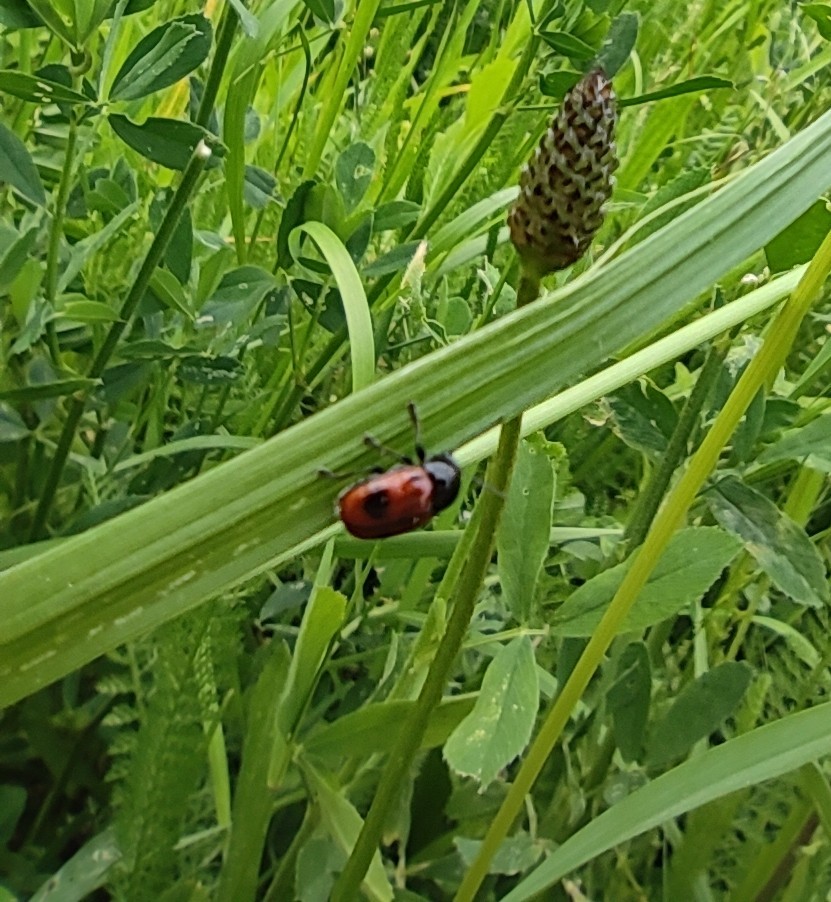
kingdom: Animalia
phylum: Arthropoda
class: Insecta
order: Coleoptera
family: Chrysomelidae
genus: Clytra
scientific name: Clytra laeviuscula
